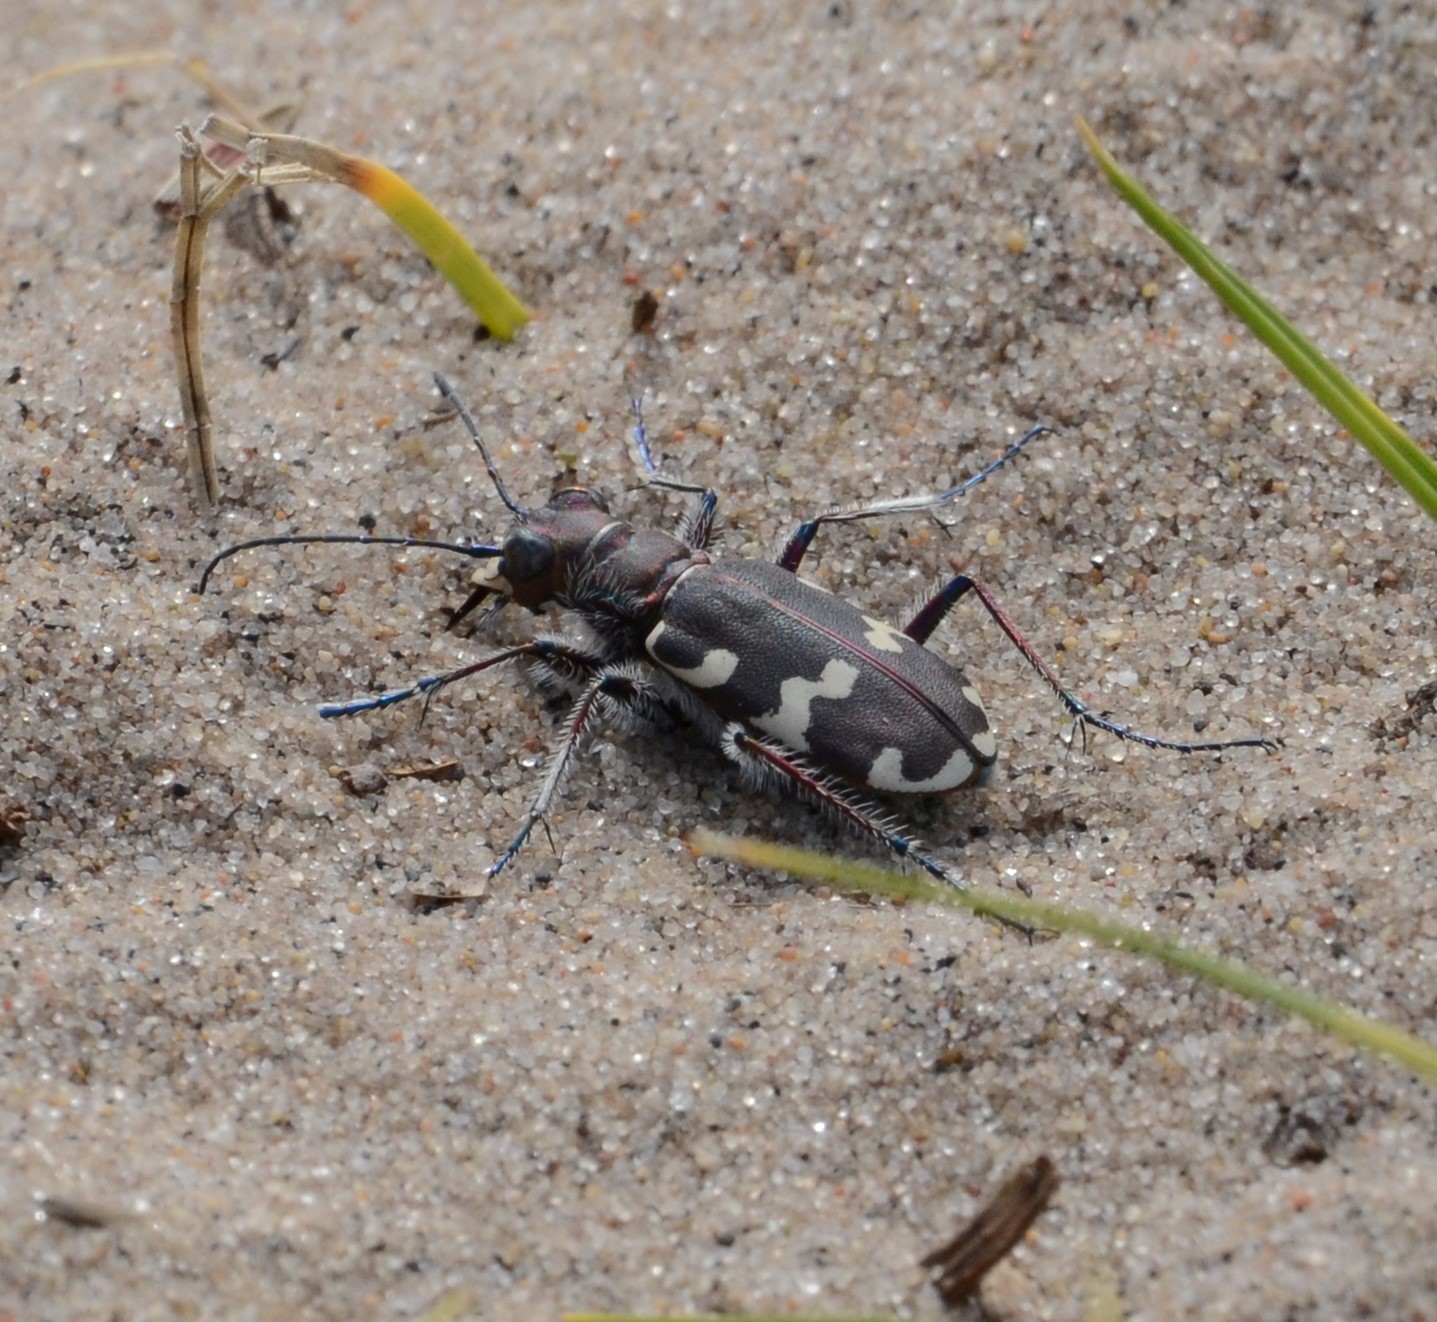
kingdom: Animalia
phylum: Arthropoda
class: Insecta
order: Coleoptera
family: Carabidae
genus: Cicindela
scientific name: Cicindela hybrida
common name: Northern dune tiger beetle
